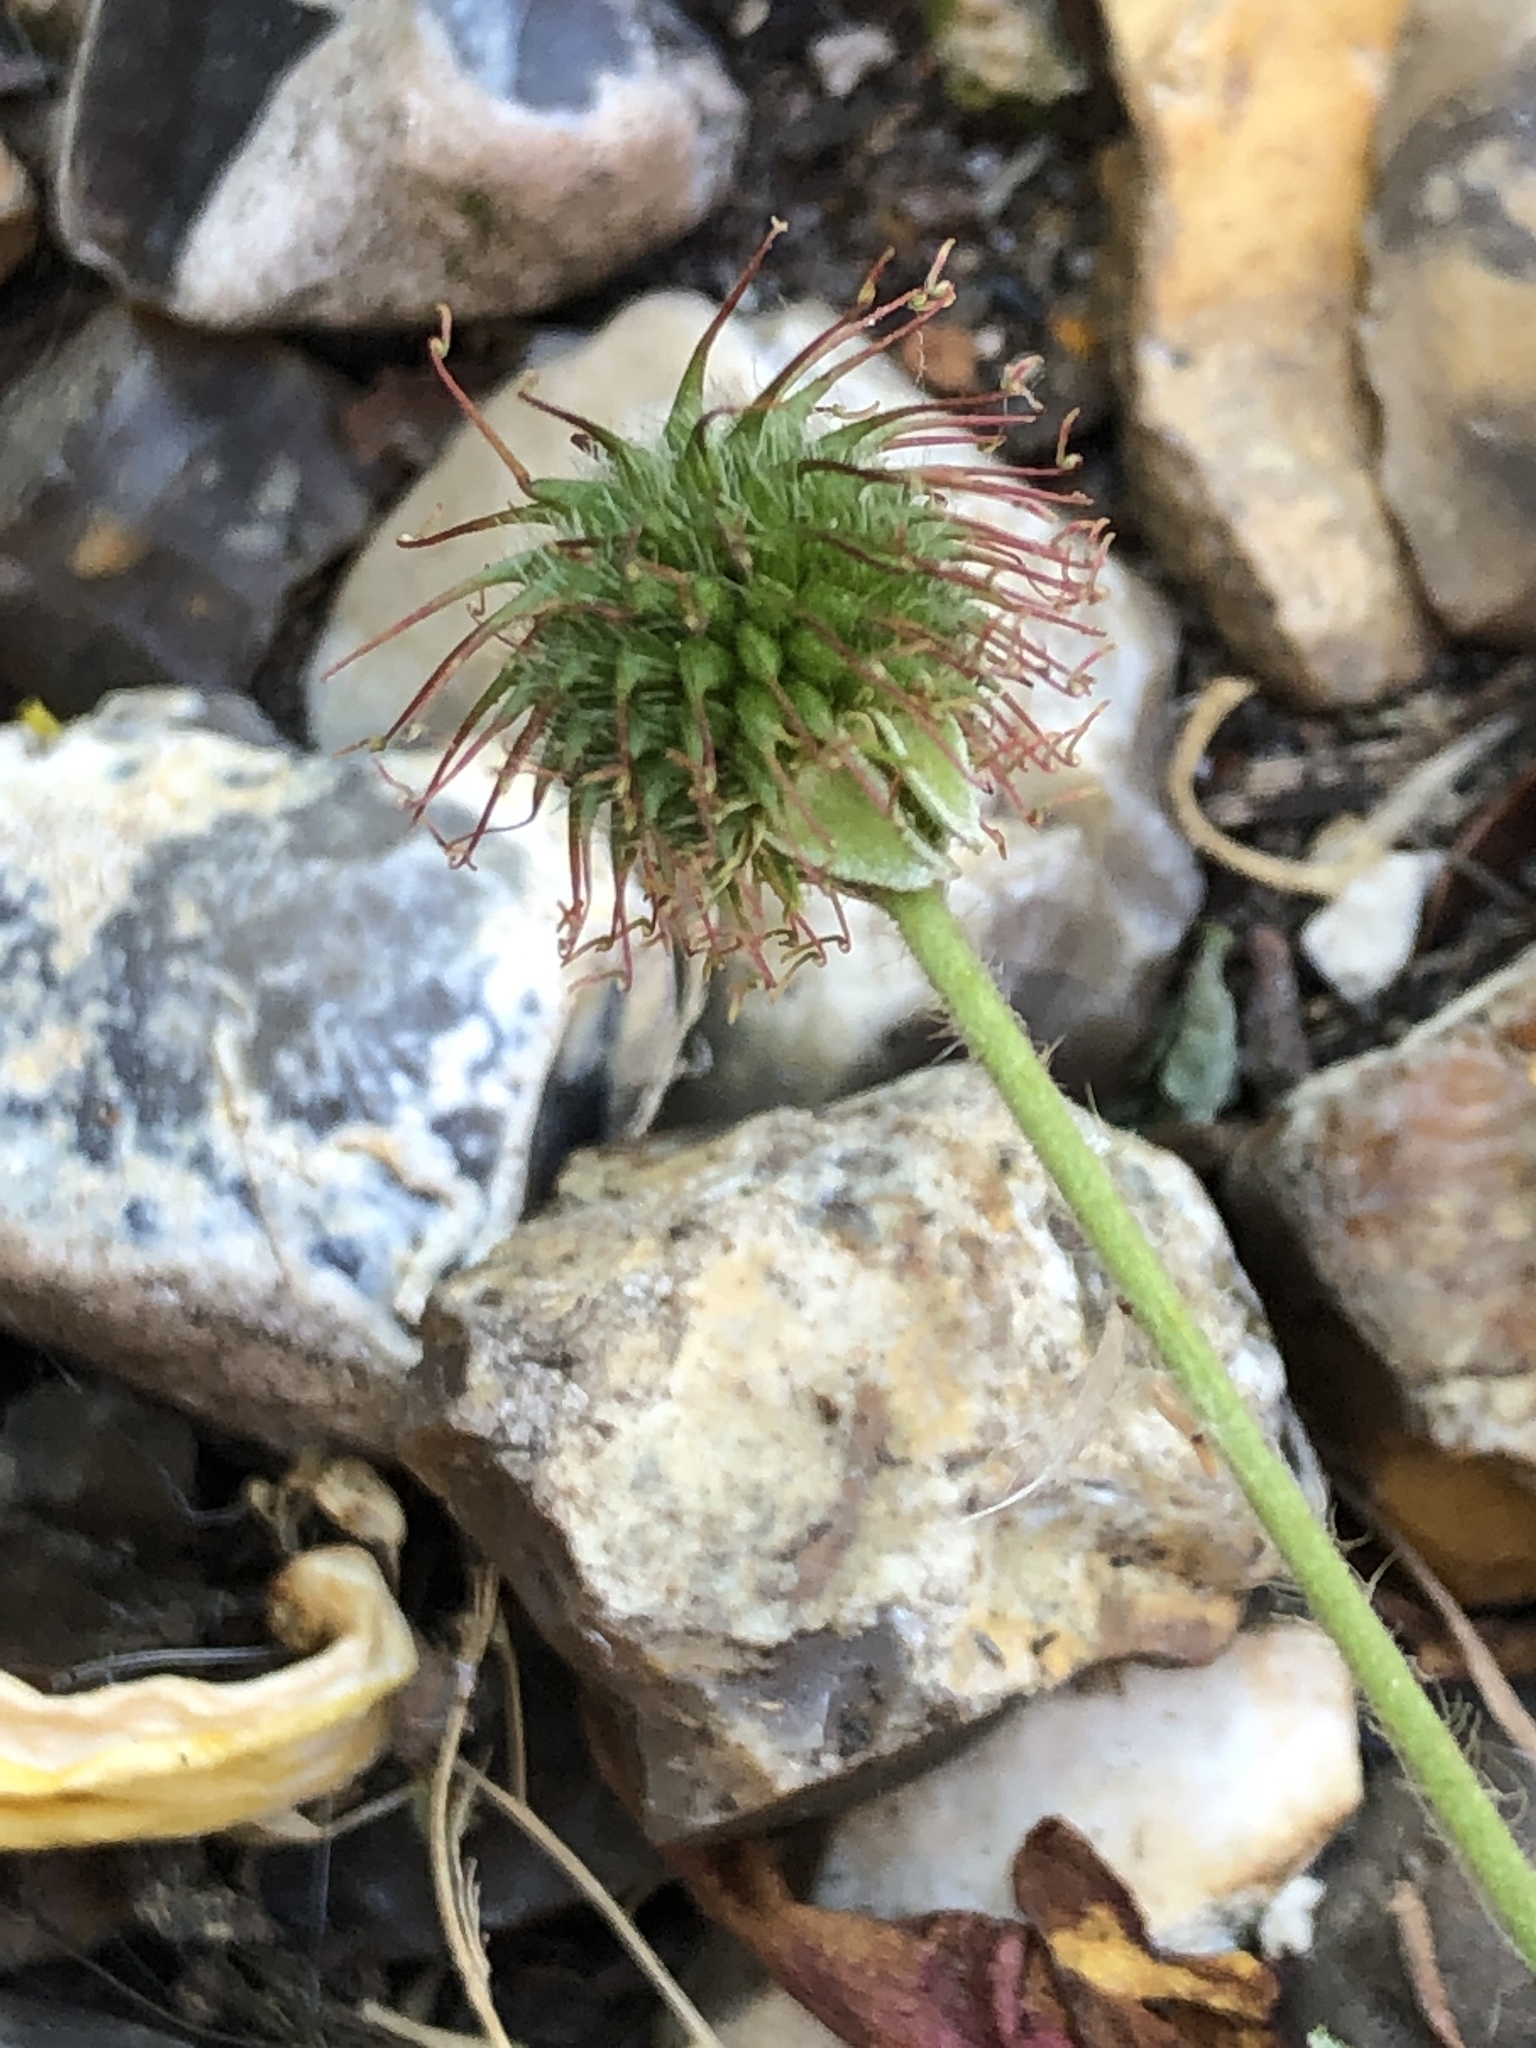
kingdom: Plantae
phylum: Tracheophyta
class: Magnoliopsida
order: Rosales
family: Rosaceae
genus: Geum
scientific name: Geum urbanum
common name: Wood avens
